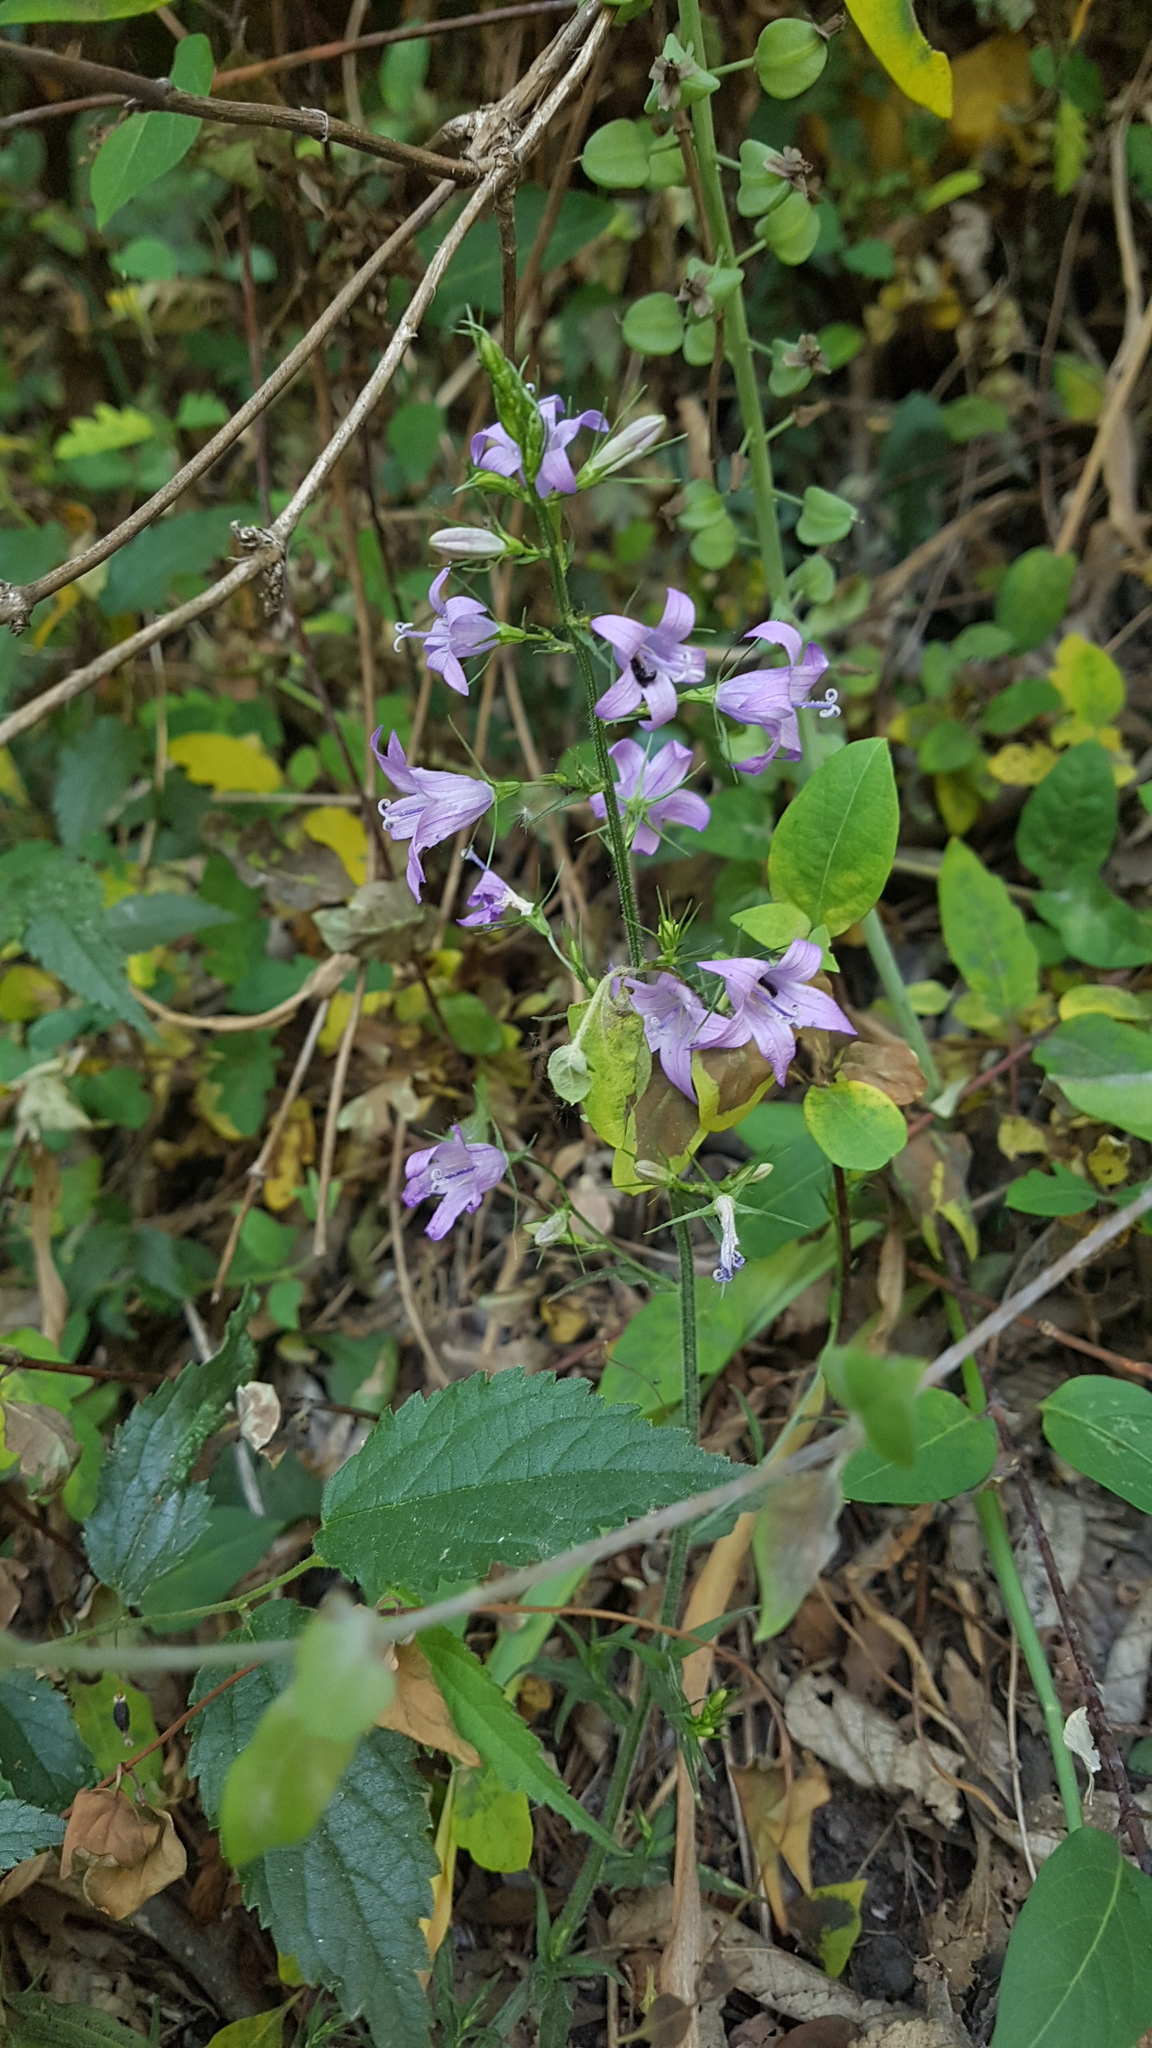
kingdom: Plantae
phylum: Tracheophyta
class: Magnoliopsida
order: Asterales
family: Campanulaceae
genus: Campanula
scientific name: Campanula rapunculus
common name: Rampion bellflower
